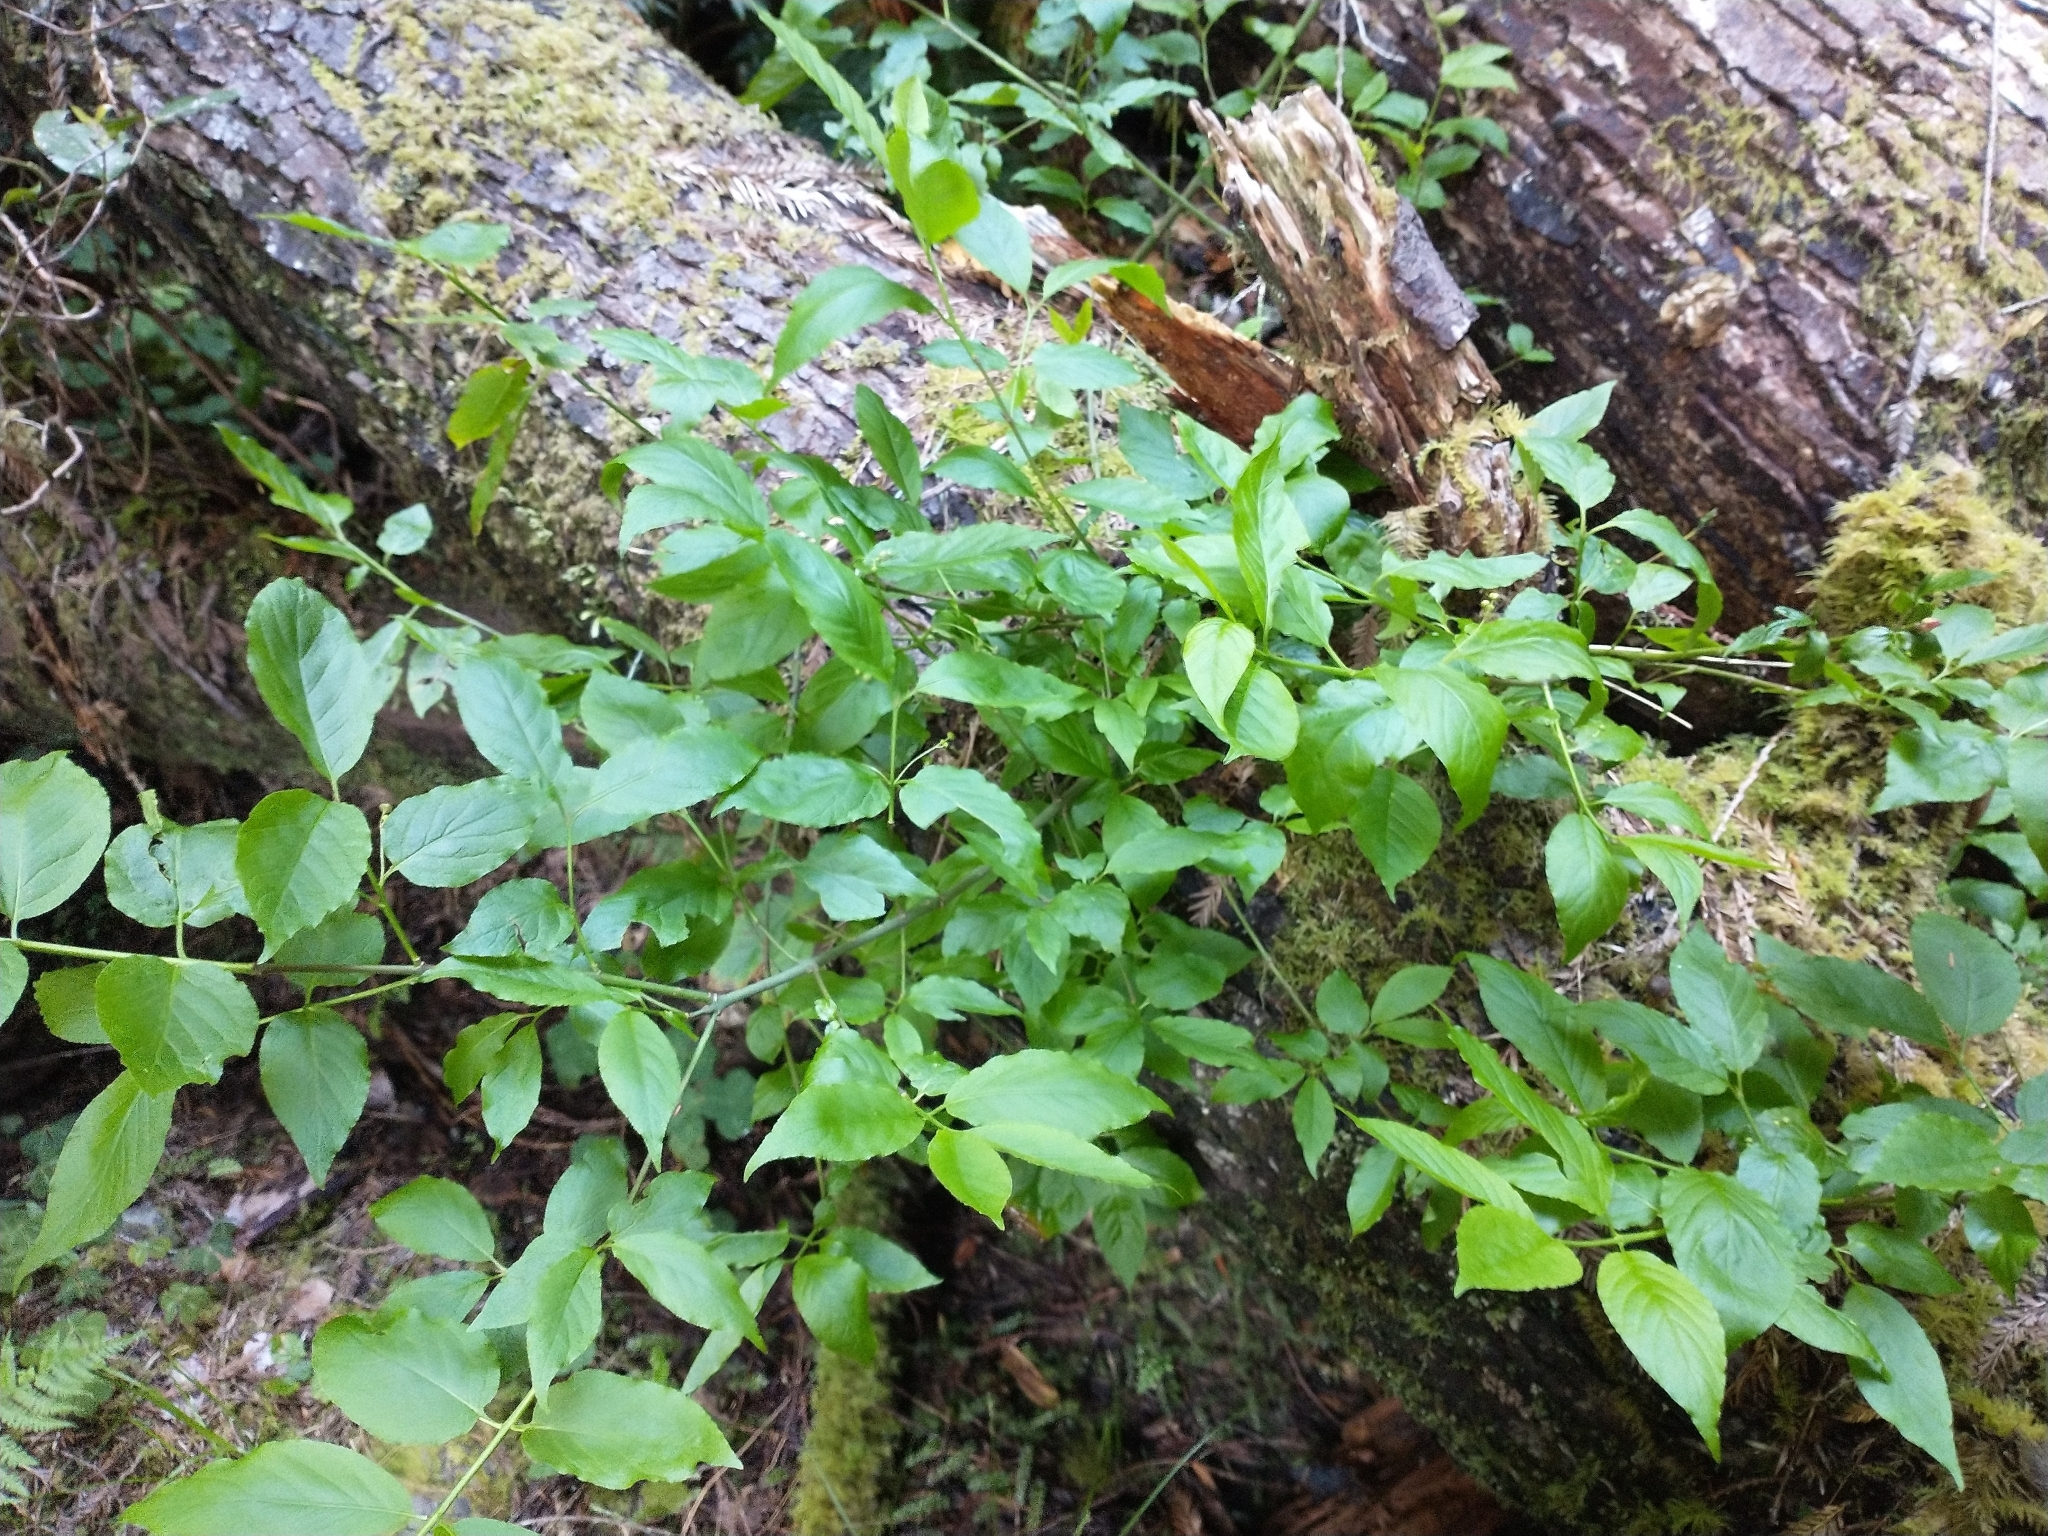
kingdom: Plantae
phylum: Tracheophyta
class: Magnoliopsida
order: Celastrales
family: Celastraceae
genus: Euonymus
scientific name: Euonymus occidentalis
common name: Western burningbush
